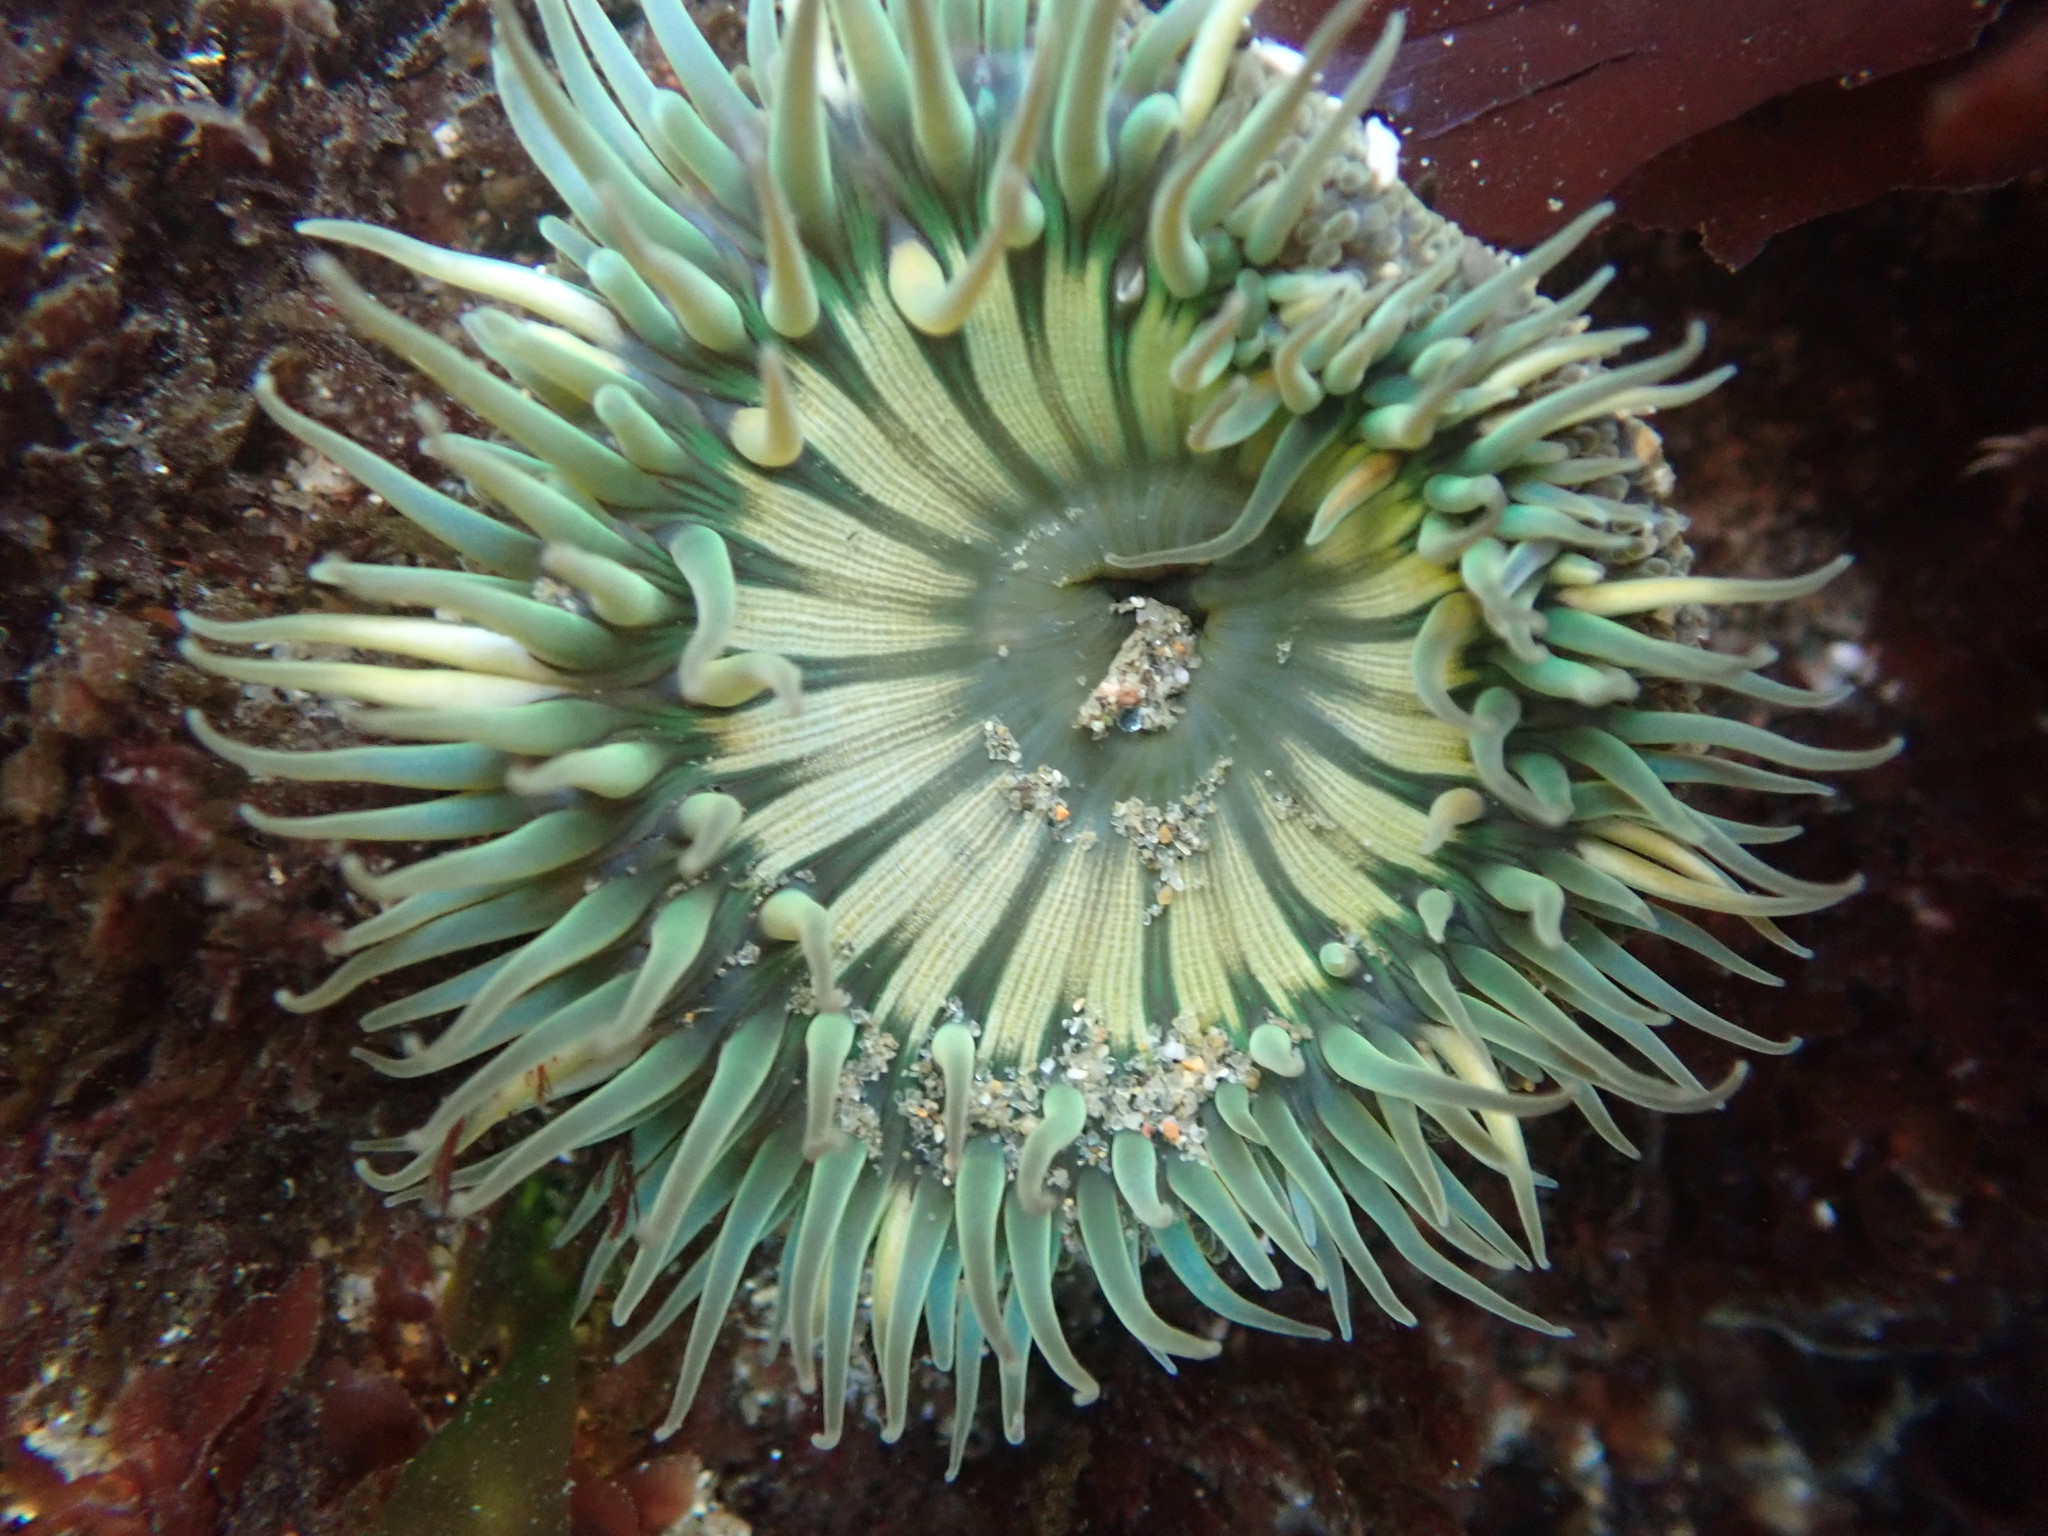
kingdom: Animalia
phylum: Cnidaria
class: Anthozoa
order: Actiniaria
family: Actiniidae
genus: Anthopleura
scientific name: Anthopleura sola
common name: Sun anemone
